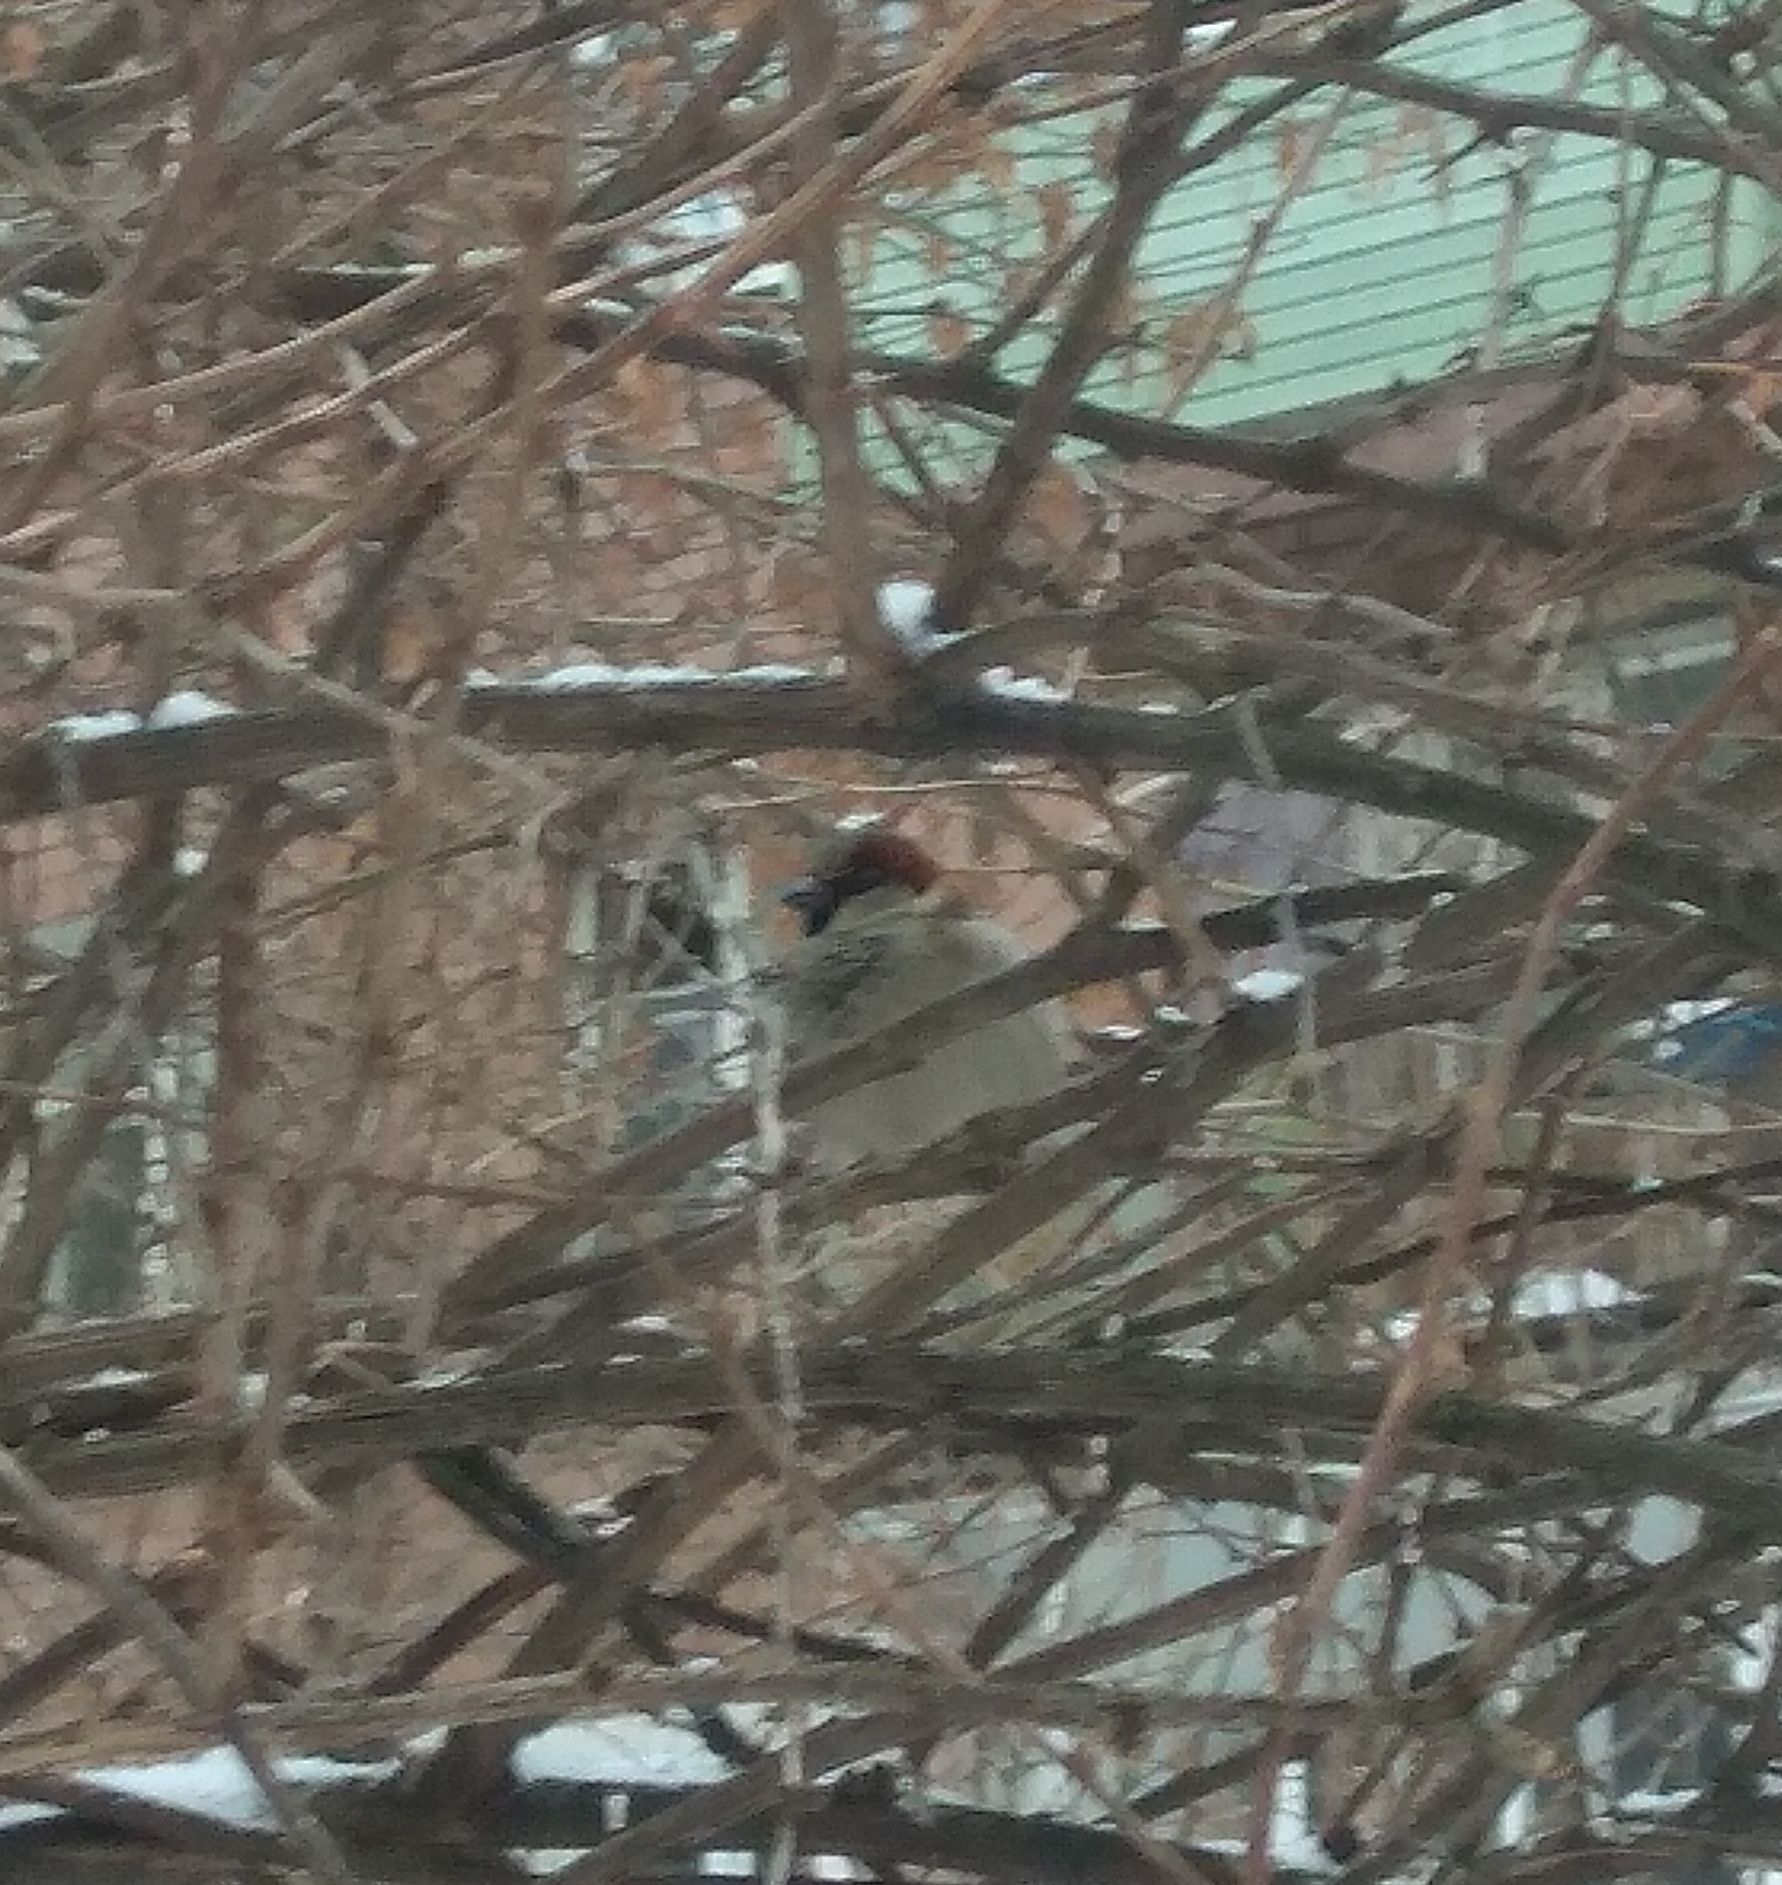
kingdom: Animalia
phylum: Chordata
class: Aves
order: Passeriformes
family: Passeridae
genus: Passer
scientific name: Passer domesticus
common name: House sparrow
